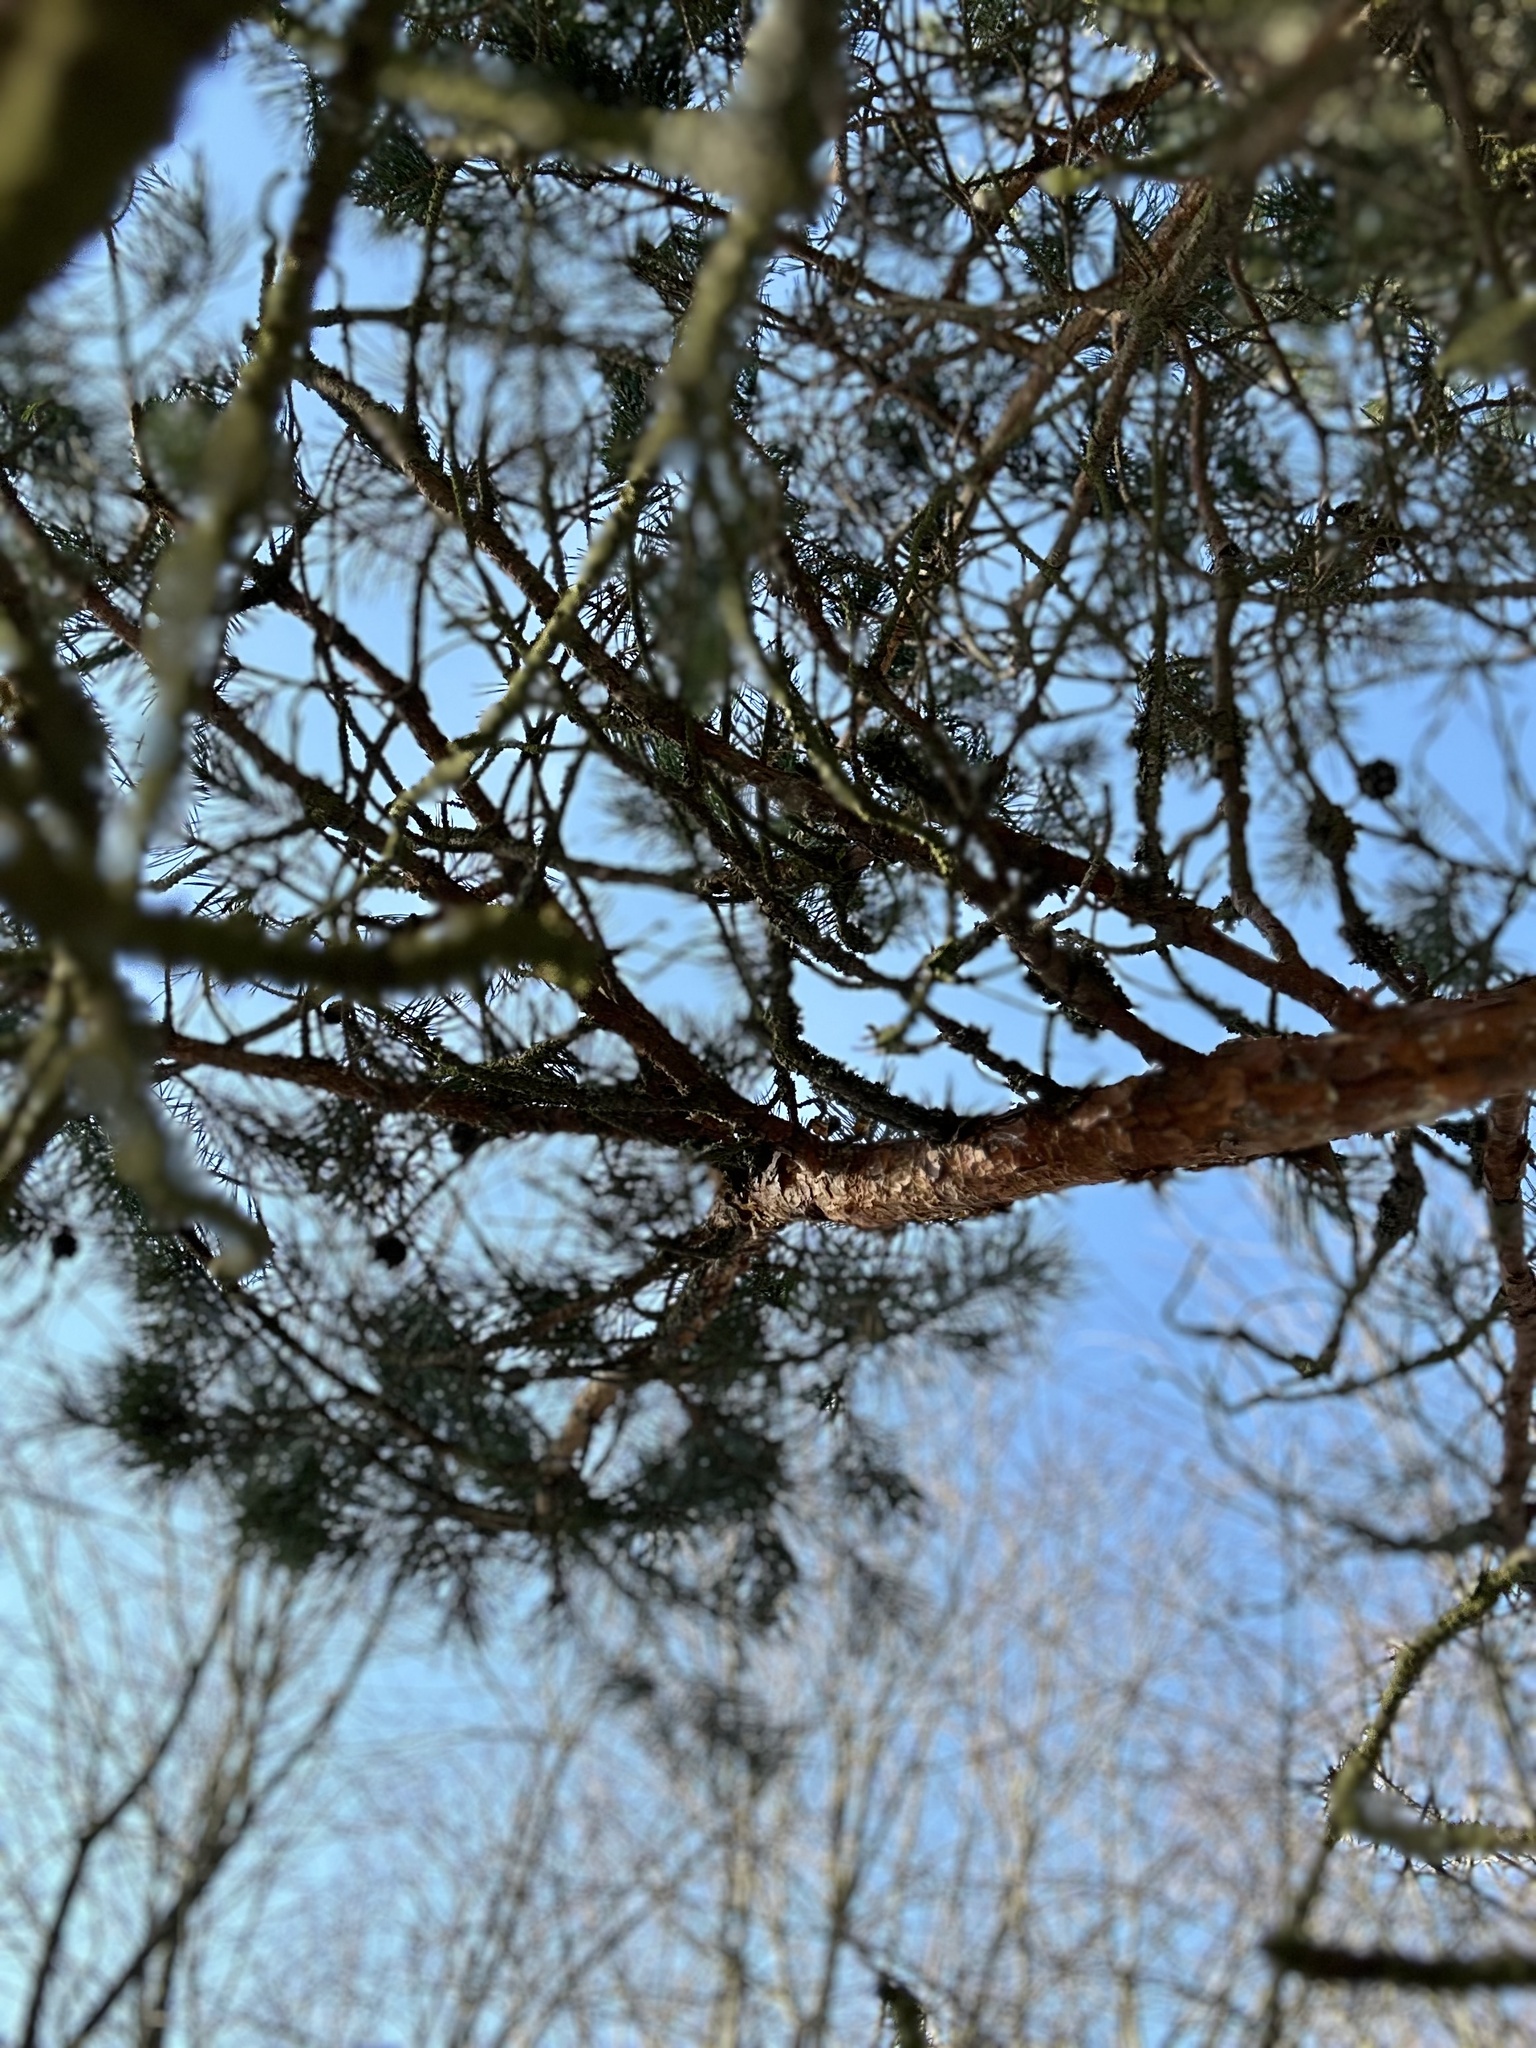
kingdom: Plantae
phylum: Tracheophyta
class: Pinopsida
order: Pinales
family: Pinaceae
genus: Pinus
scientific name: Pinus sylvestris
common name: Scots pine
